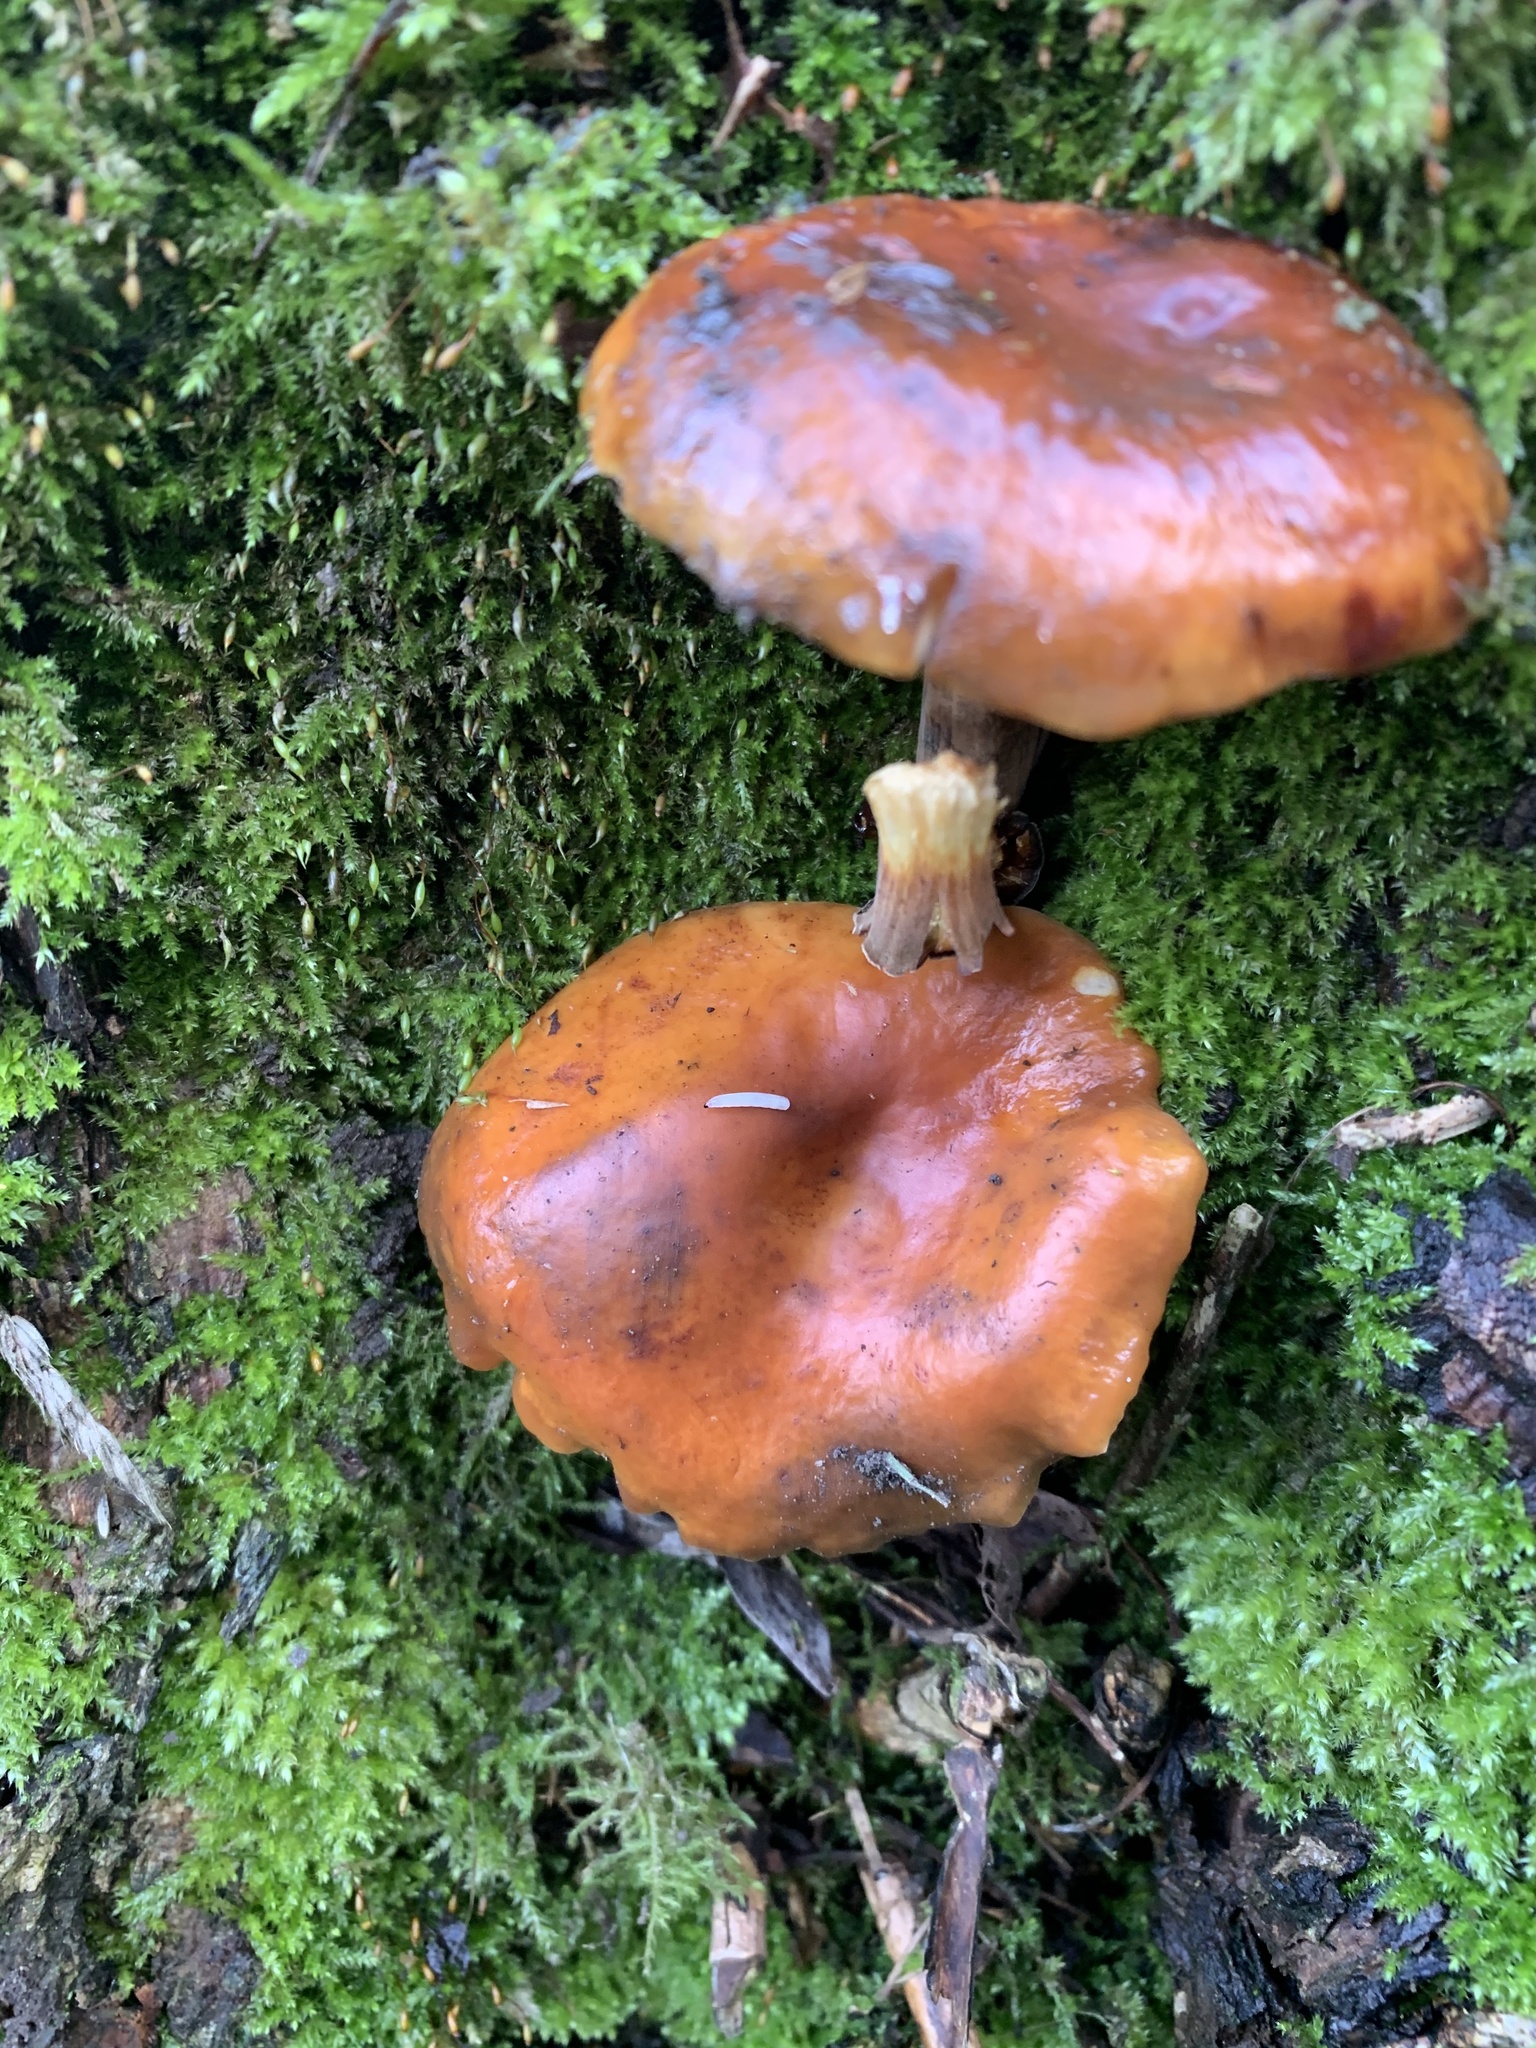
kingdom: Fungi
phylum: Basidiomycota
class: Agaricomycetes
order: Agaricales
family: Physalacriaceae
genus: Flammulina
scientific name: Flammulina
